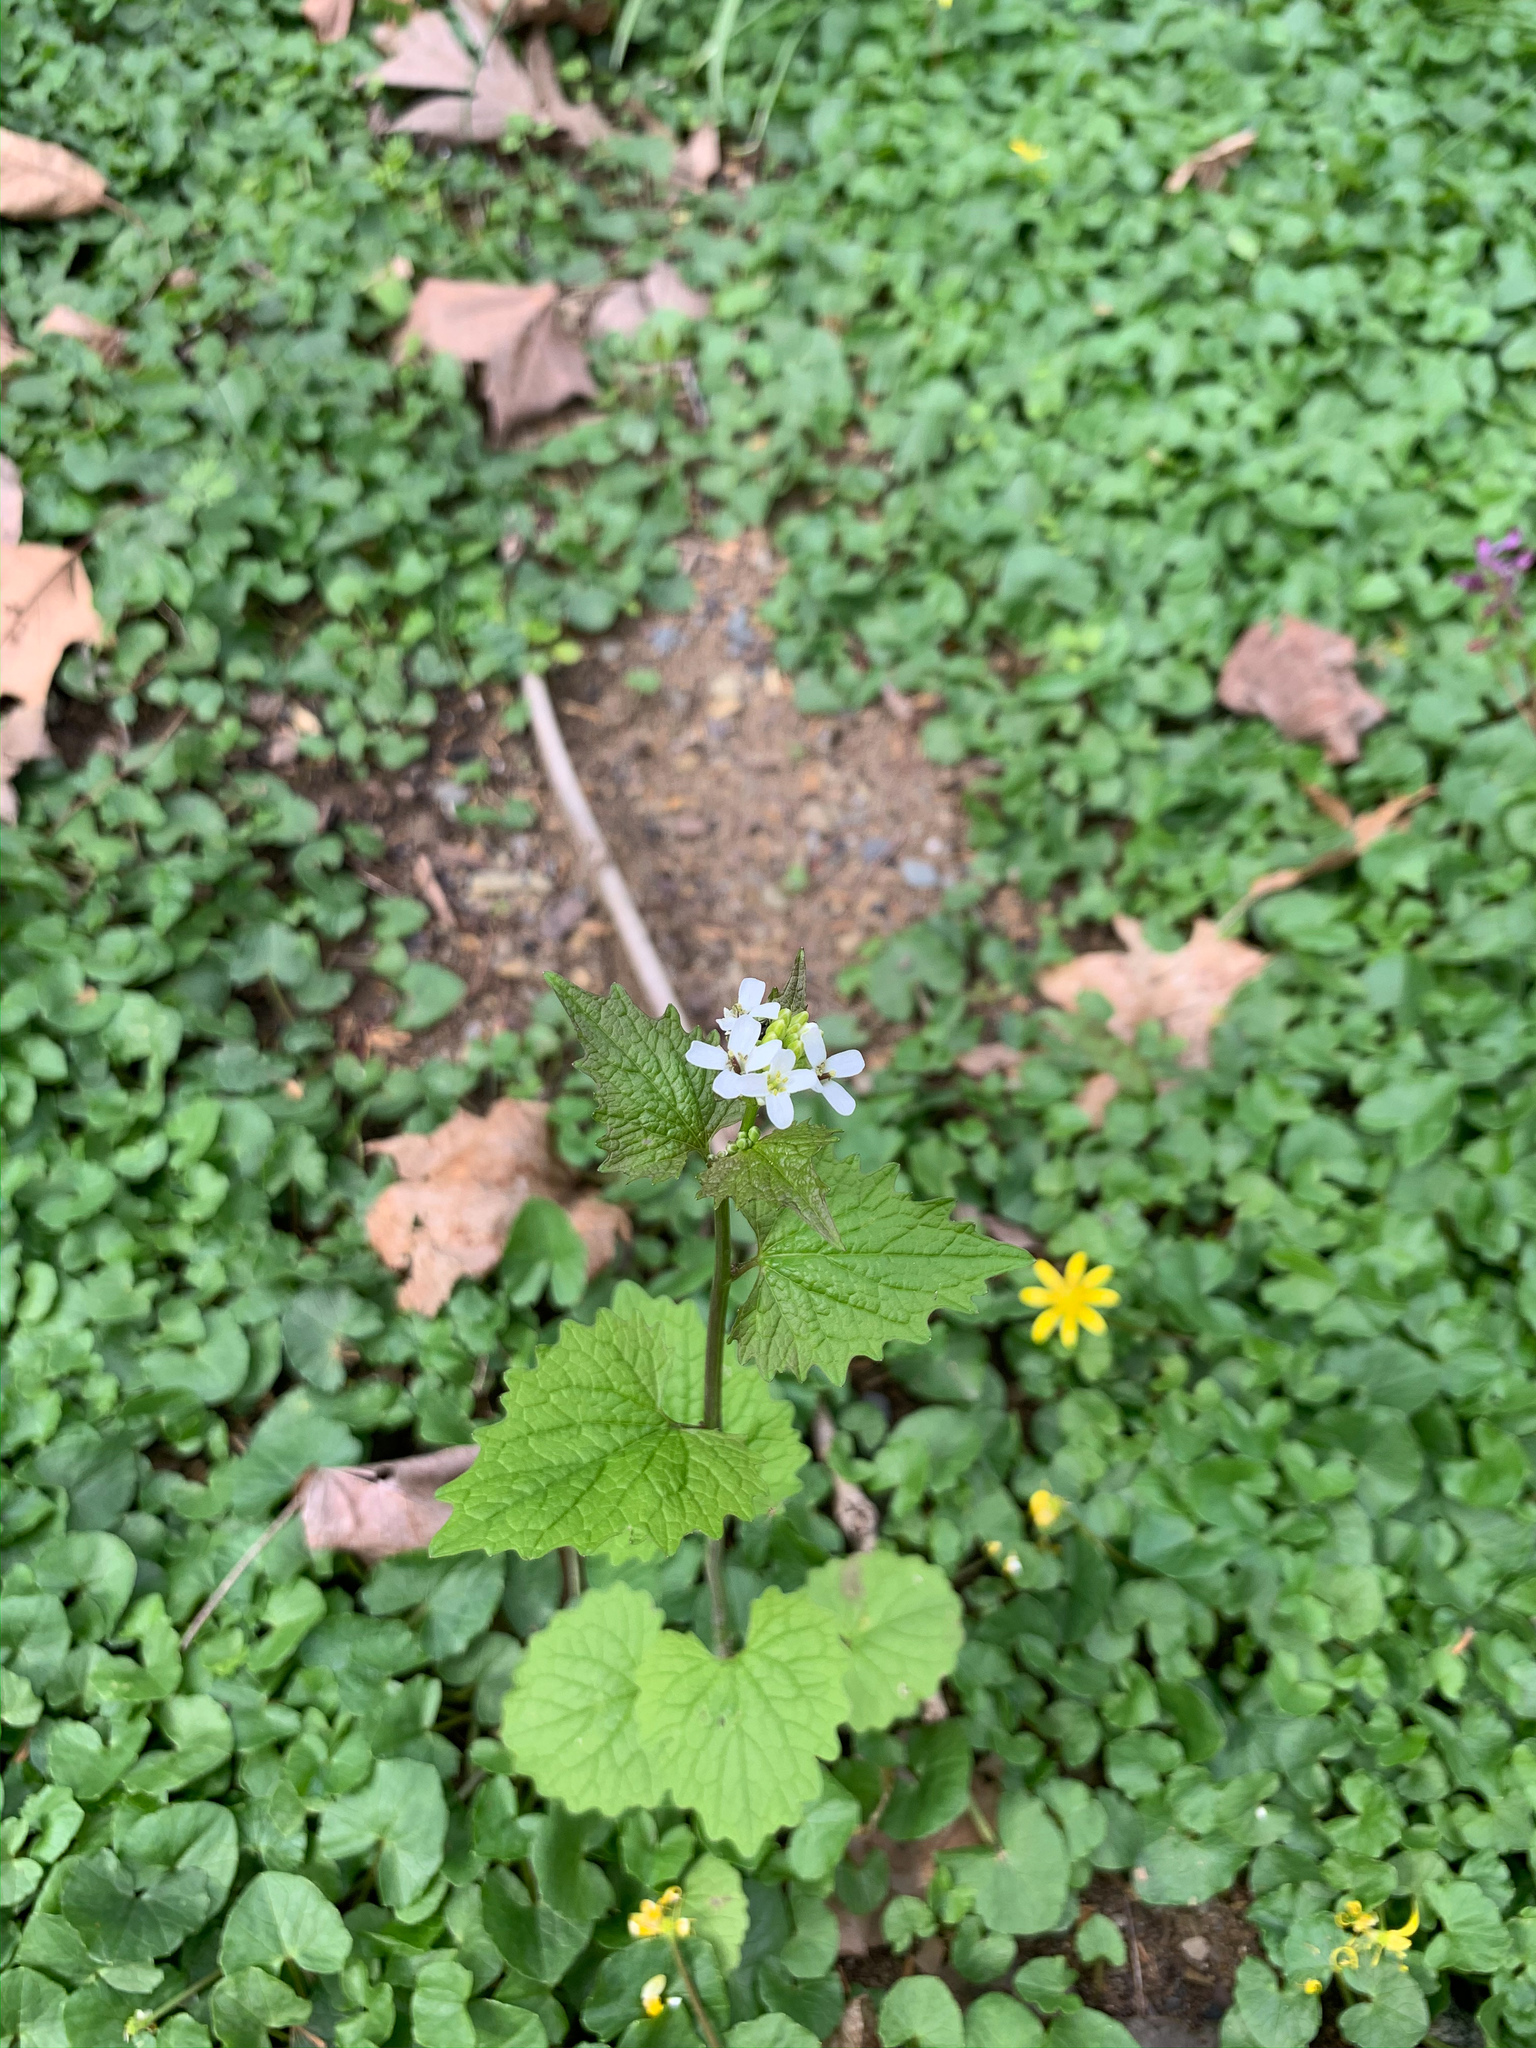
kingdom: Plantae
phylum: Tracheophyta
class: Magnoliopsida
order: Brassicales
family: Brassicaceae
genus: Alliaria
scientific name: Alliaria petiolata
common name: Garlic mustard
